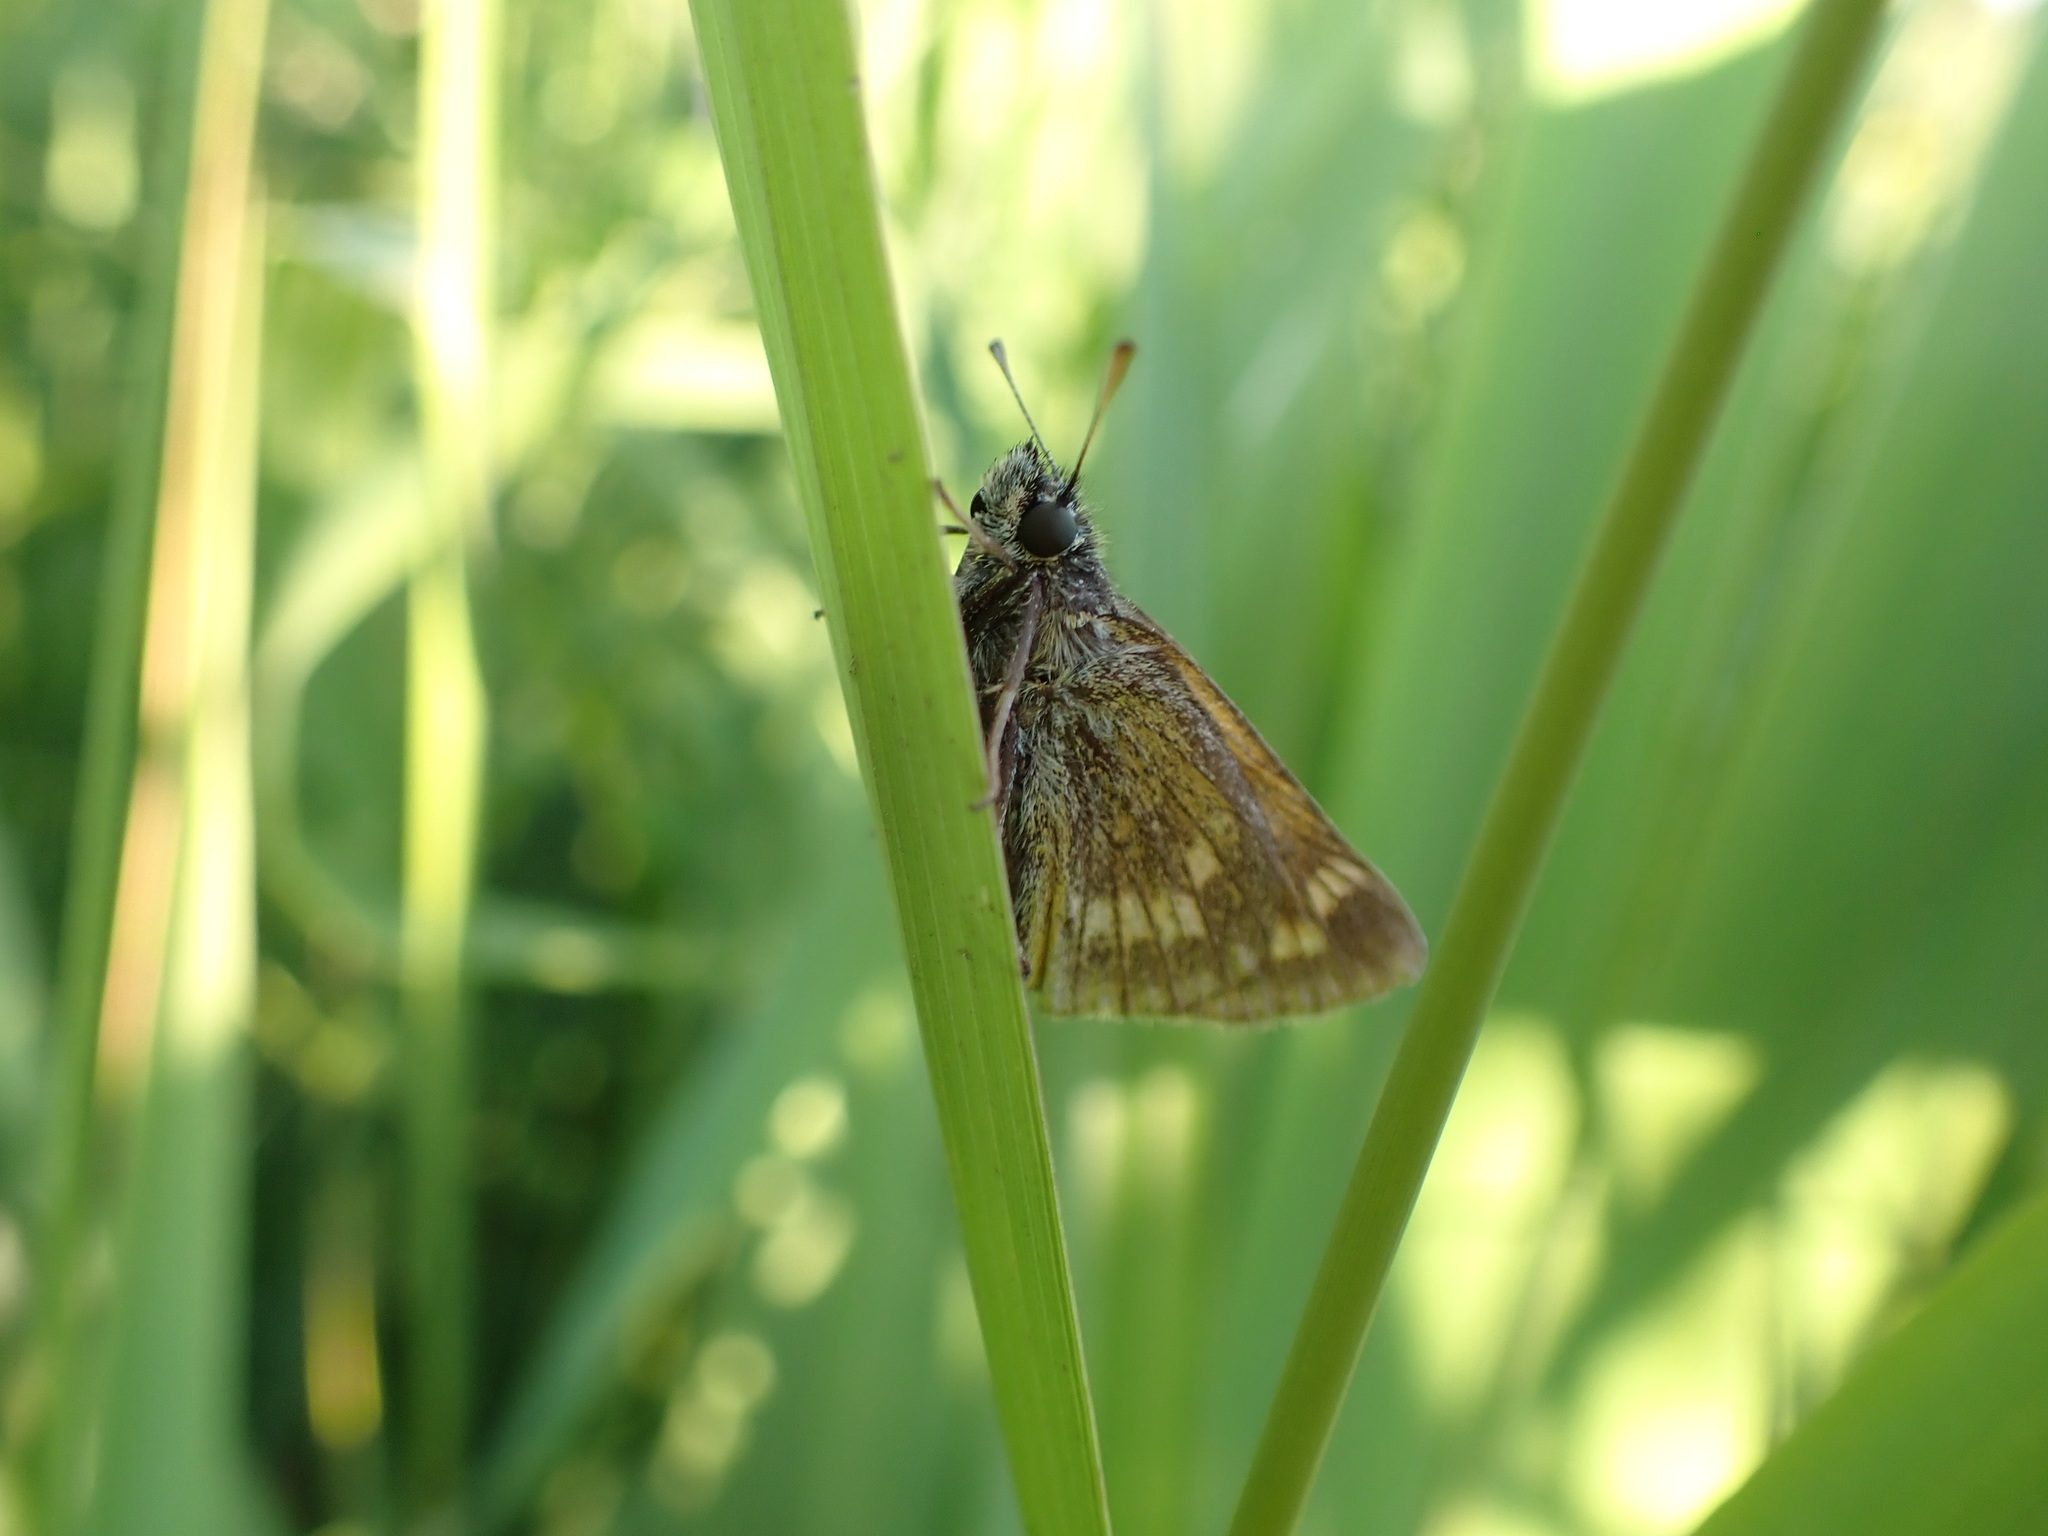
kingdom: Animalia
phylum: Arthropoda
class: Insecta
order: Lepidoptera
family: Hesperiidae
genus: Ochlodes
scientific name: Ochlodes venata
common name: Large skipper
